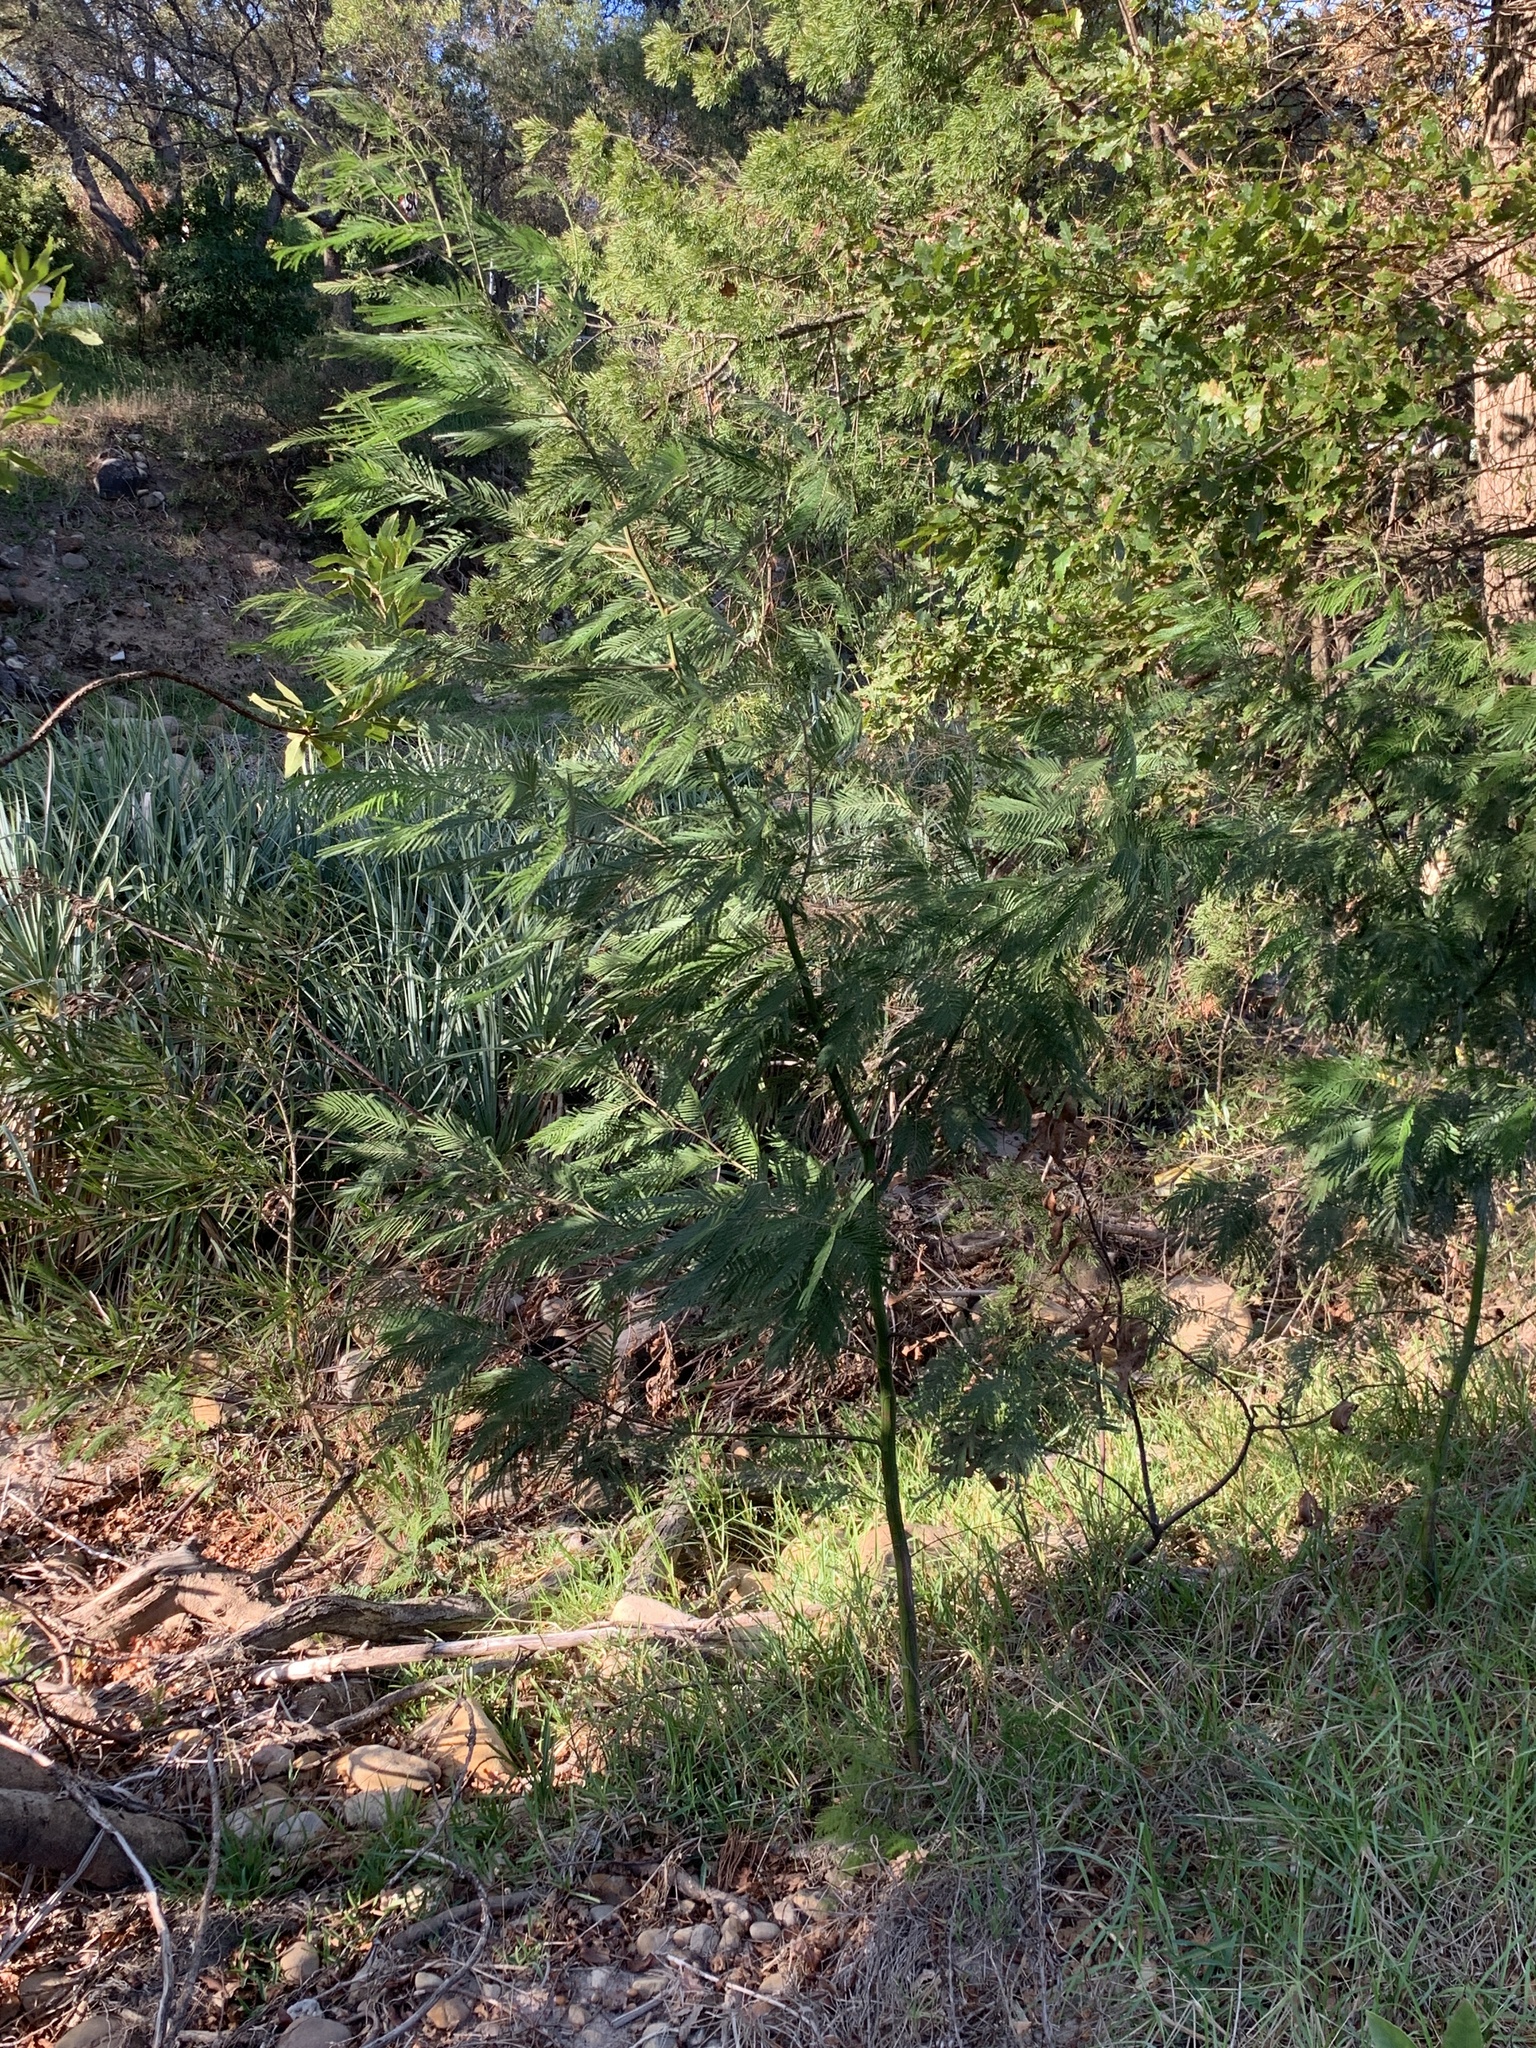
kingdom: Plantae
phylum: Tracheophyta
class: Magnoliopsida
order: Fabales
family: Fabaceae
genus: Acacia
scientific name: Acacia mearnsii
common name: Black wattle
